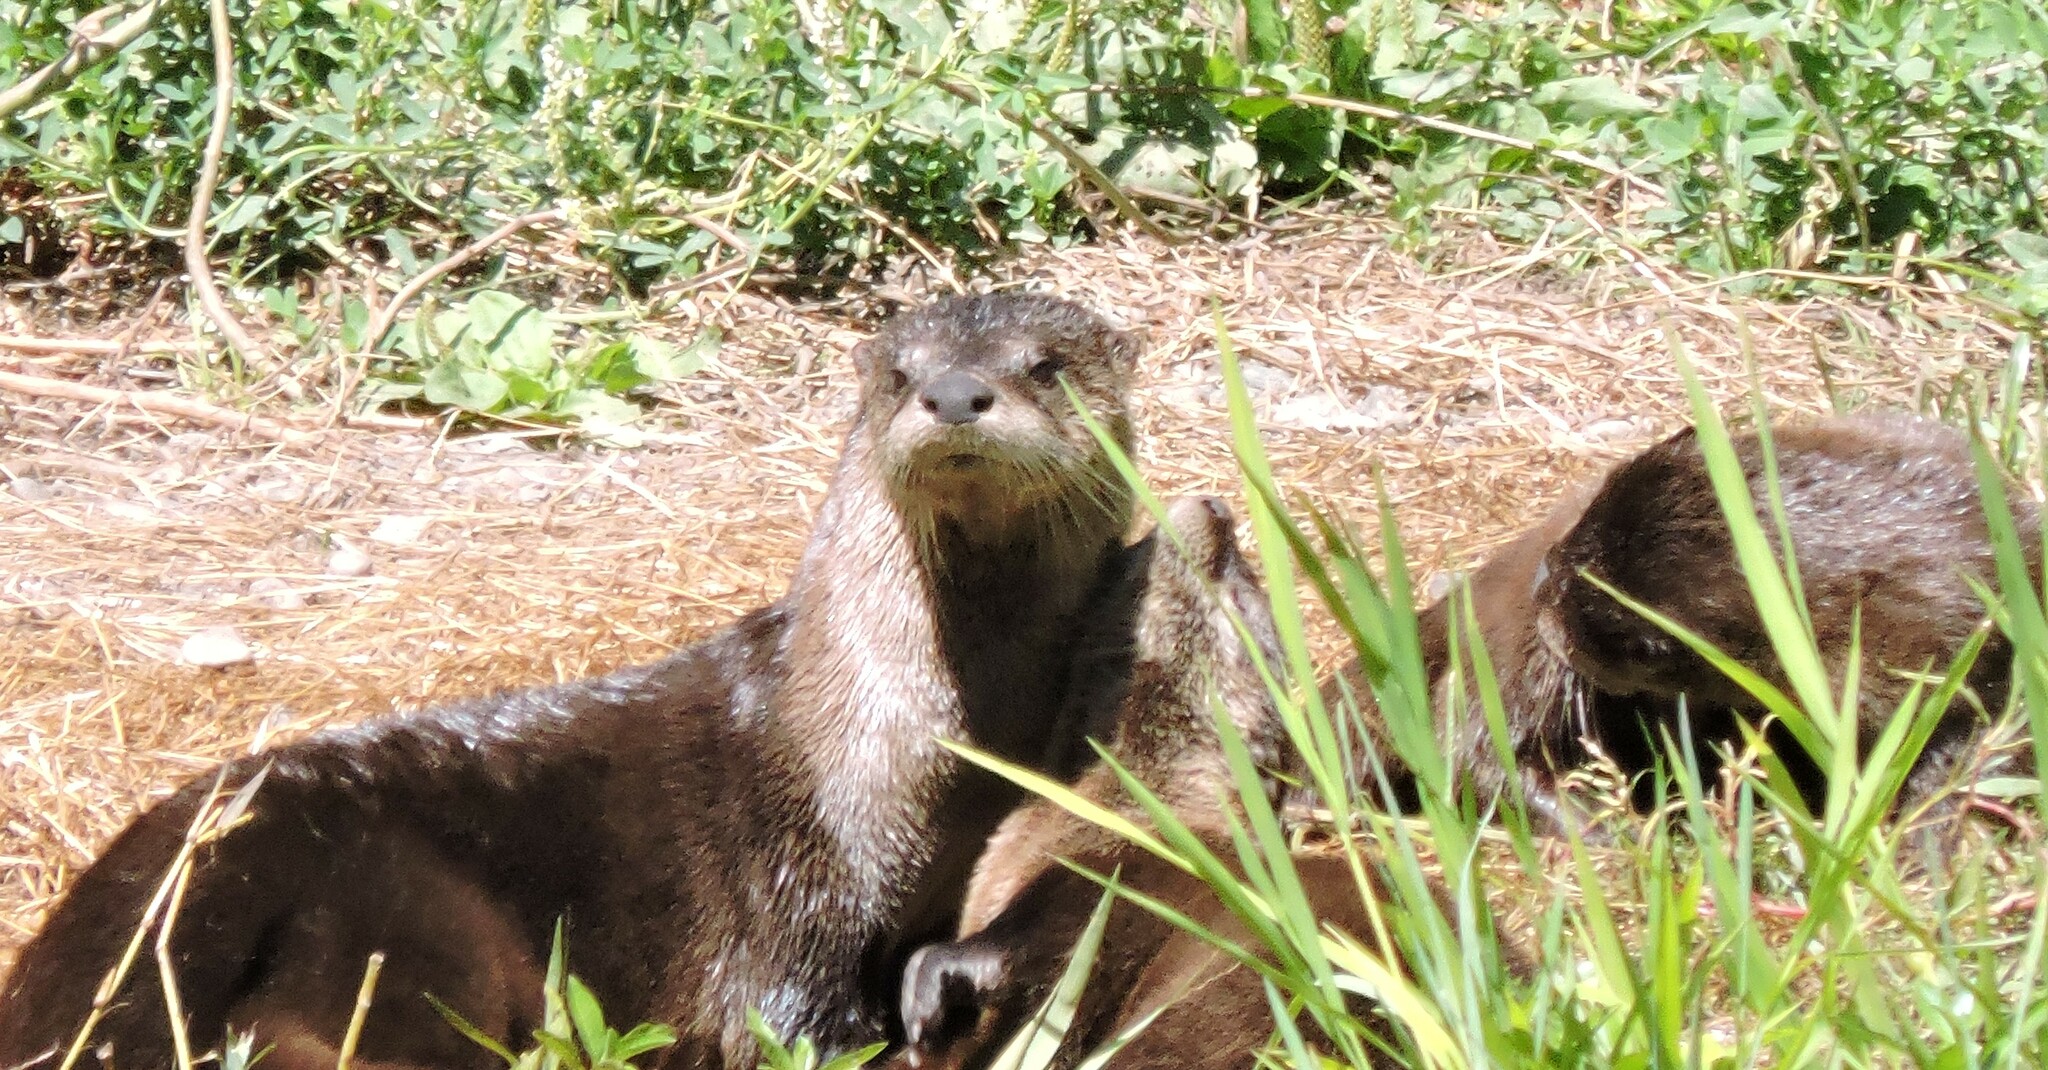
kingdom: Animalia
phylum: Chordata
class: Mammalia
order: Carnivora
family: Mustelidae
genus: Lontra
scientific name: Lontra canadensis
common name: North american river otter
